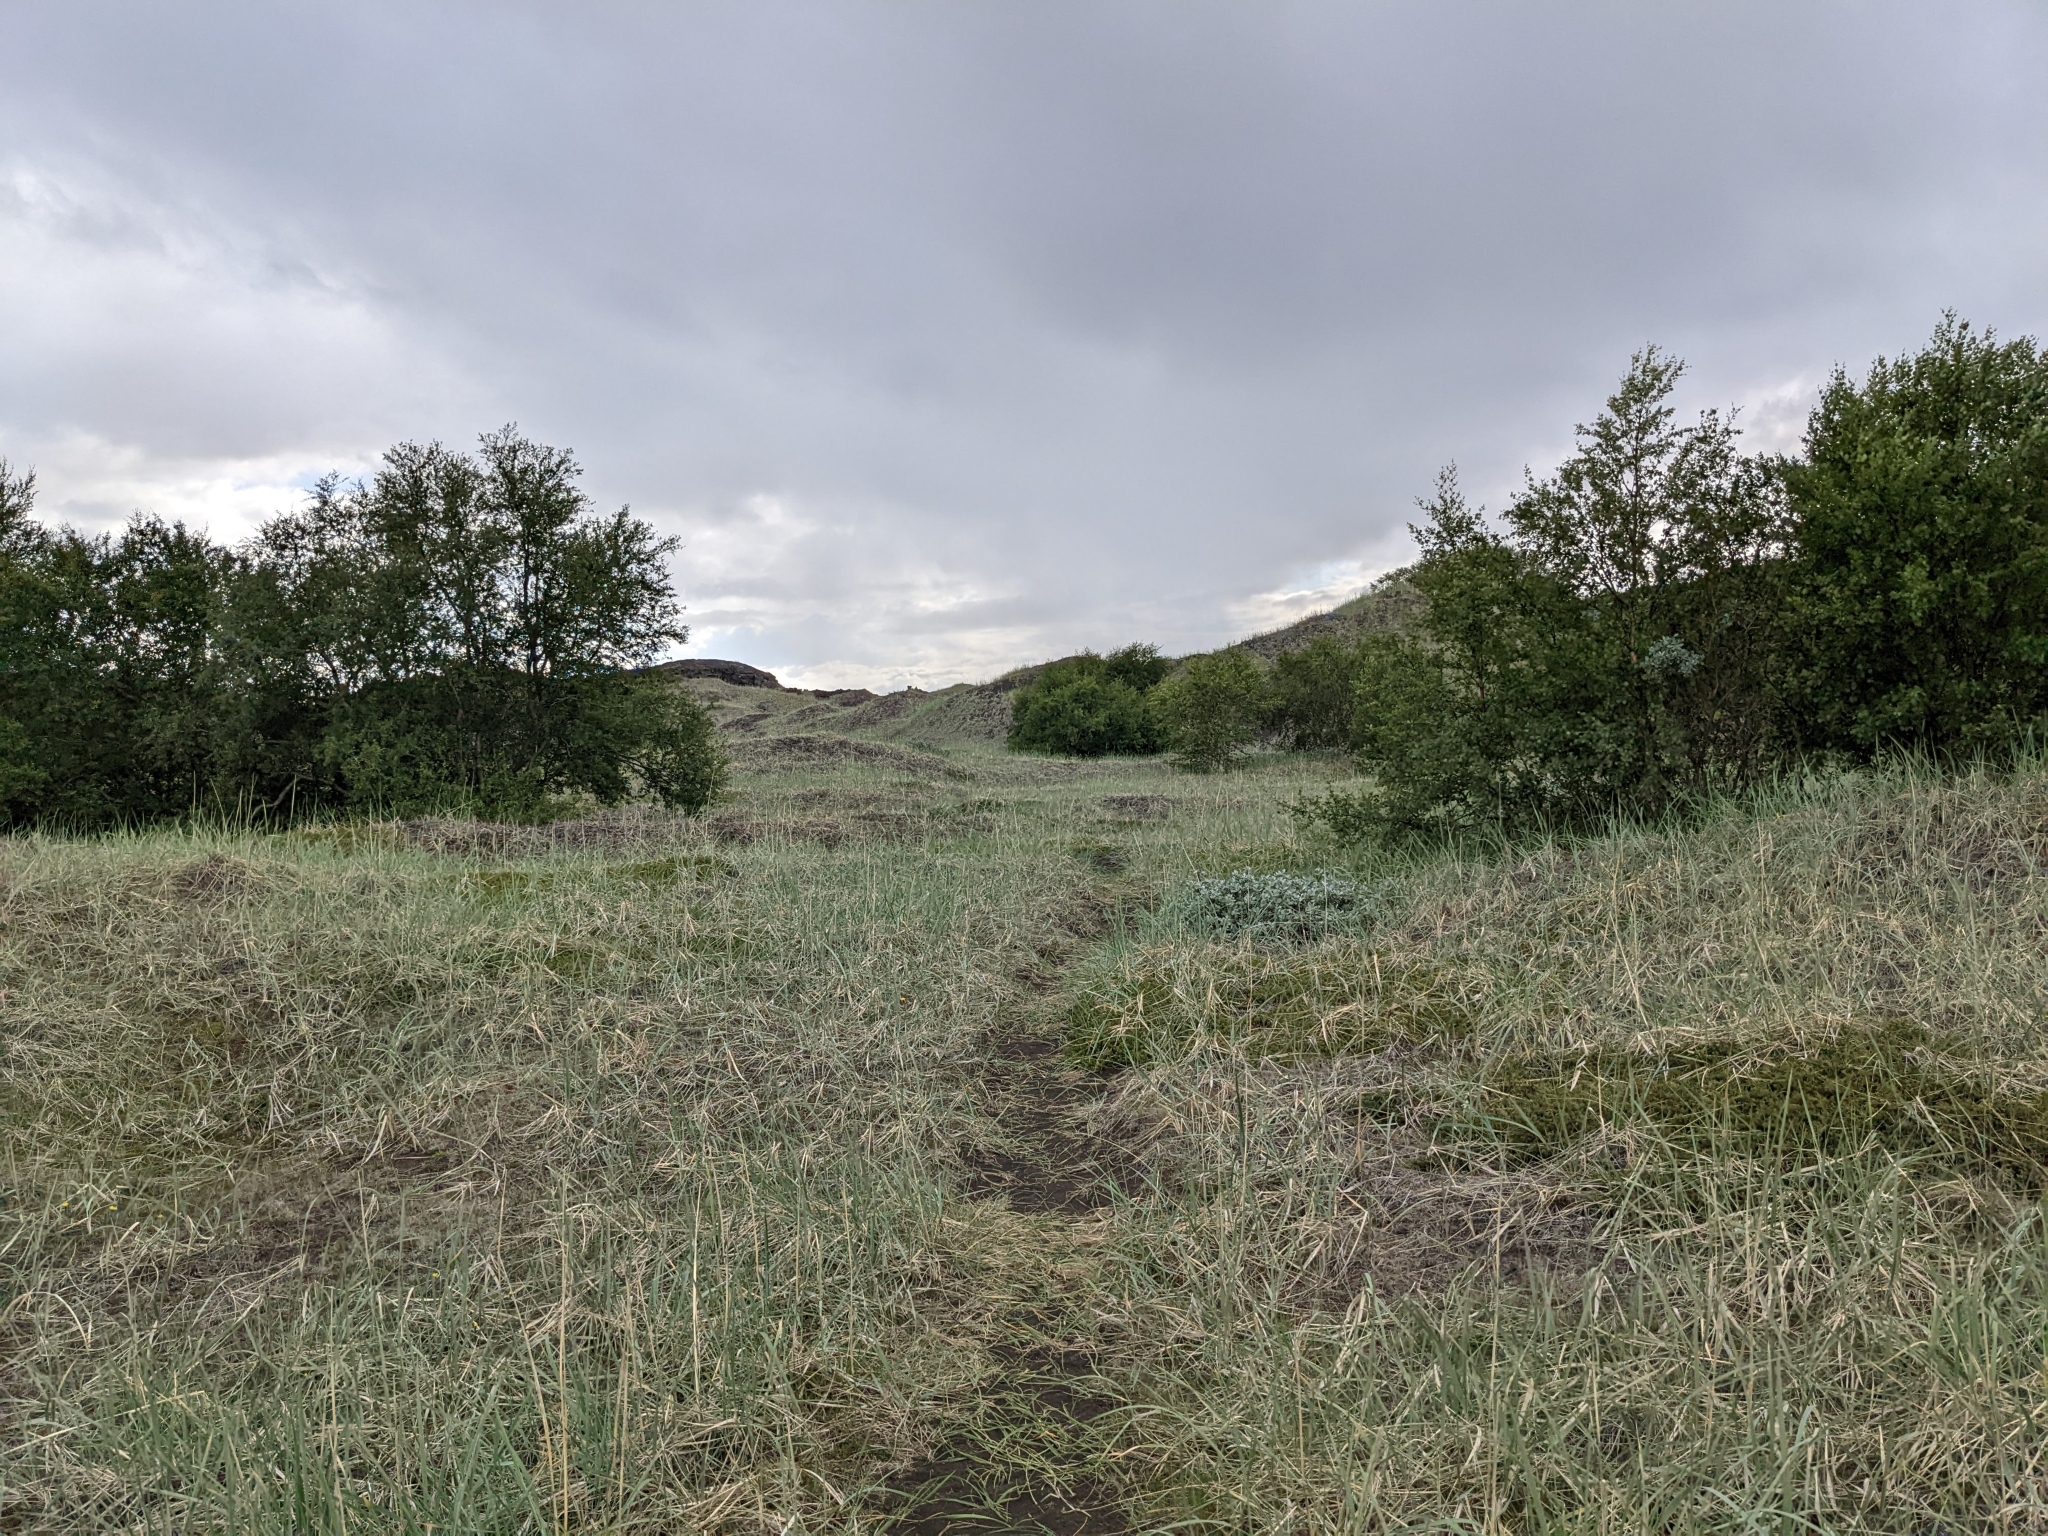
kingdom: Plantae
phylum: Tracheophyta
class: Liliopsida
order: Poales
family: Poaceae
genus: Leymus
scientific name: Leymus arenarius
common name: Lyme-grass
